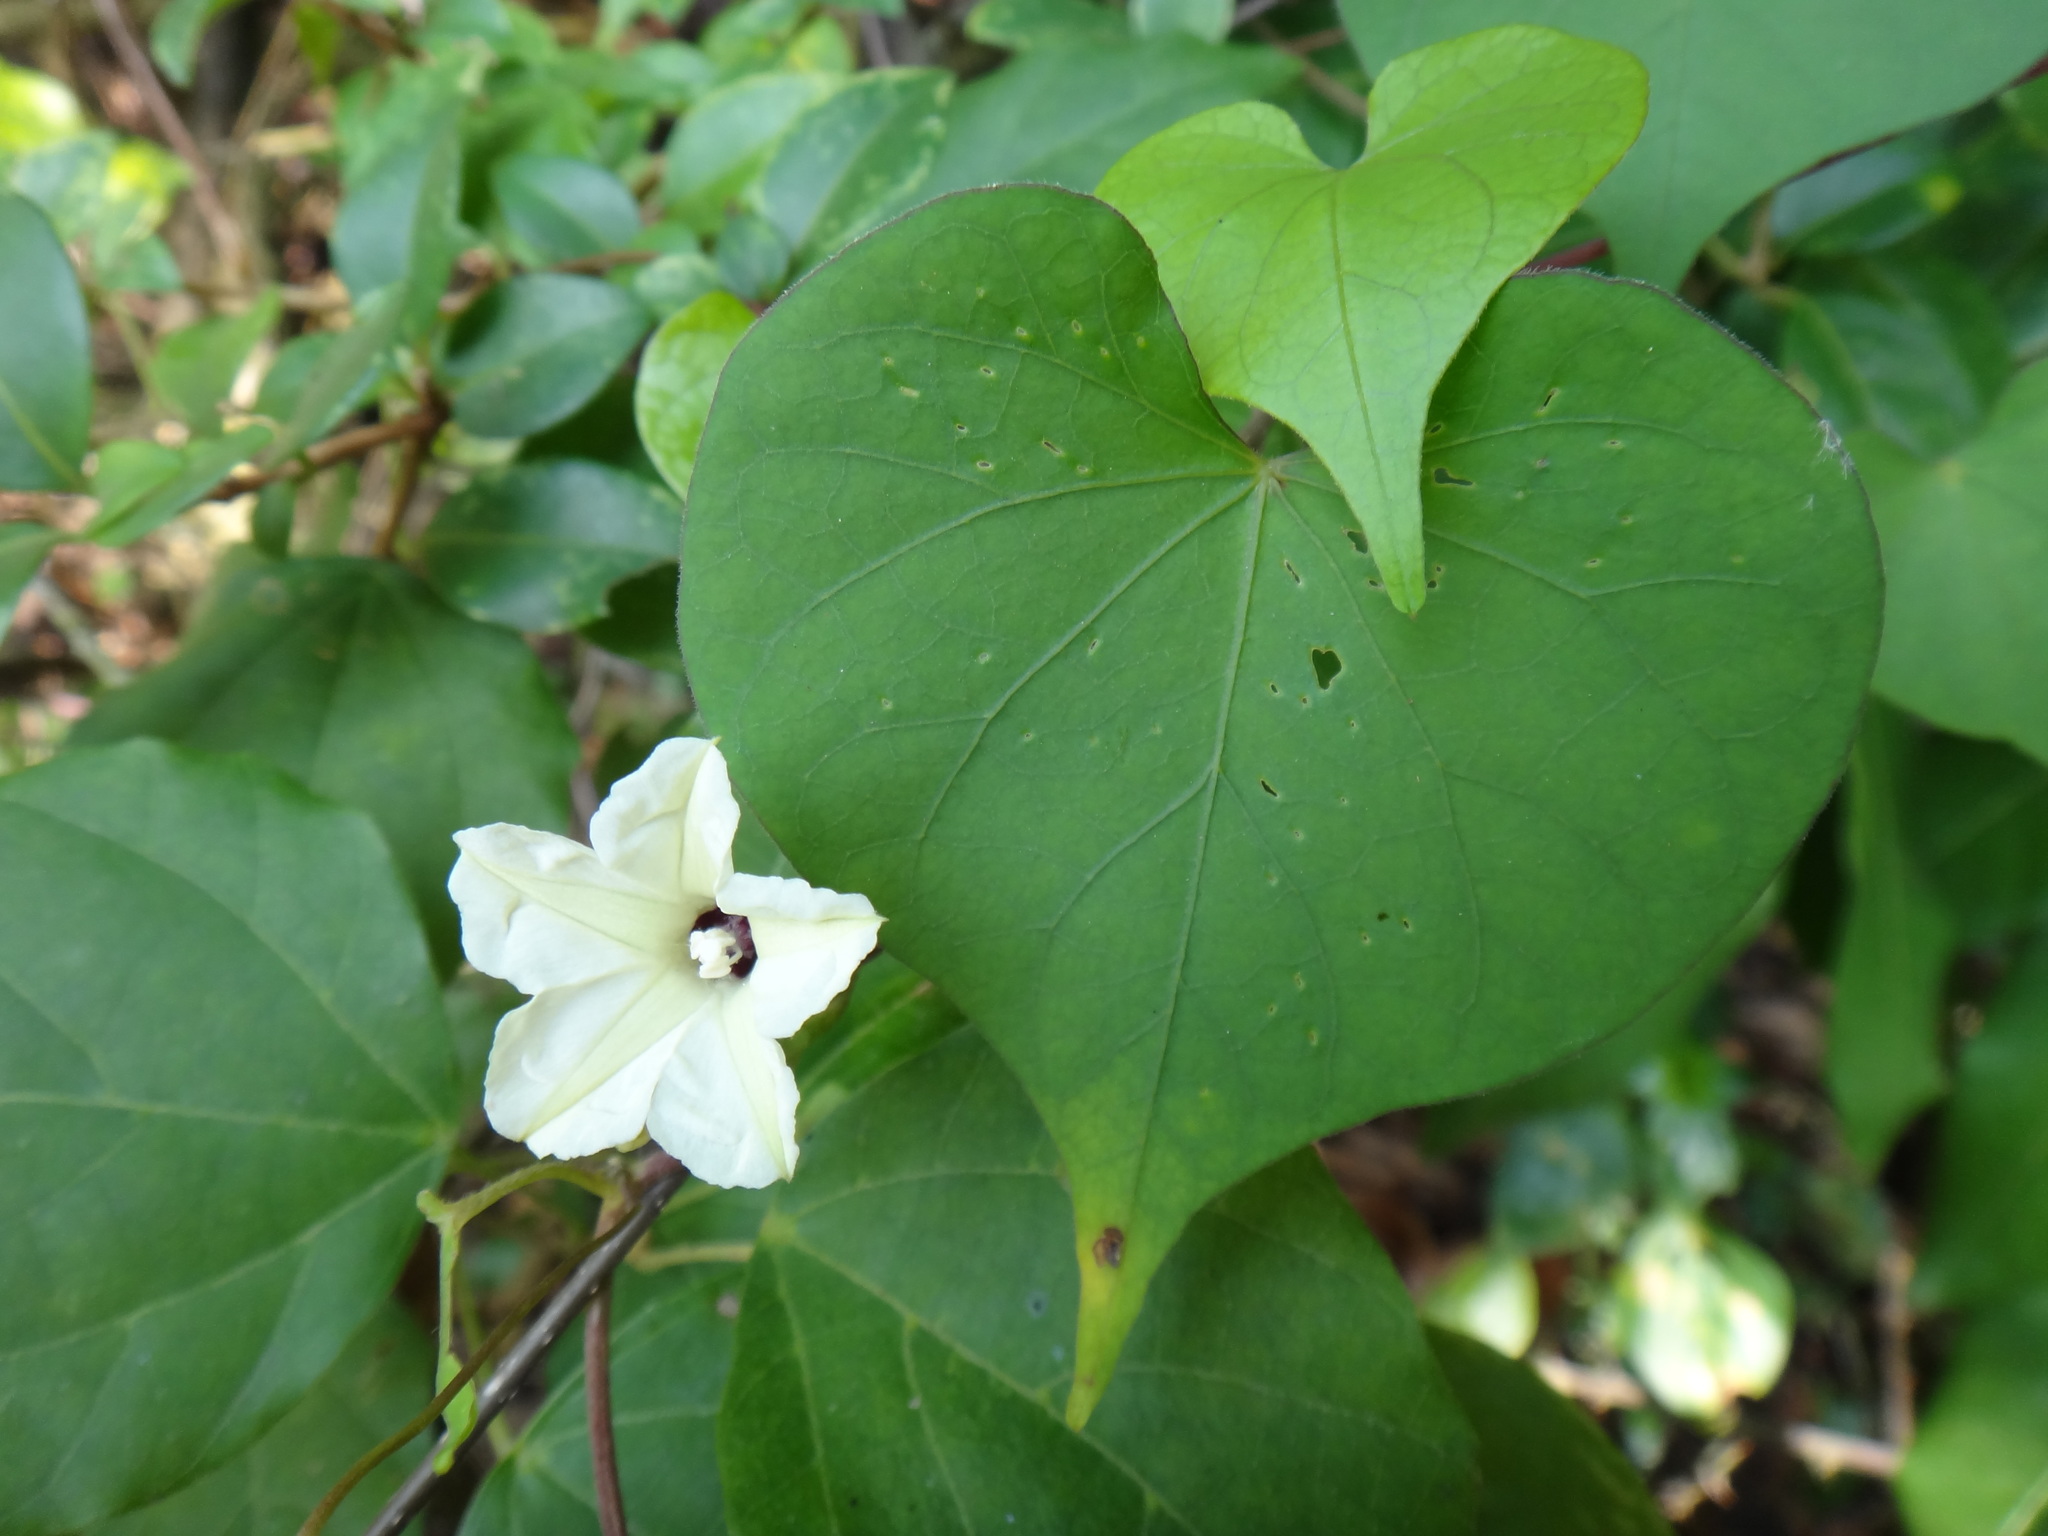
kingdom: Plantae
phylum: Tracheophyta
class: Magnoliopsida
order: Solanales
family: Convolvulaceae
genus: Ipomoea
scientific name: Ipomoea obscura
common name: Obscure morning-glory
